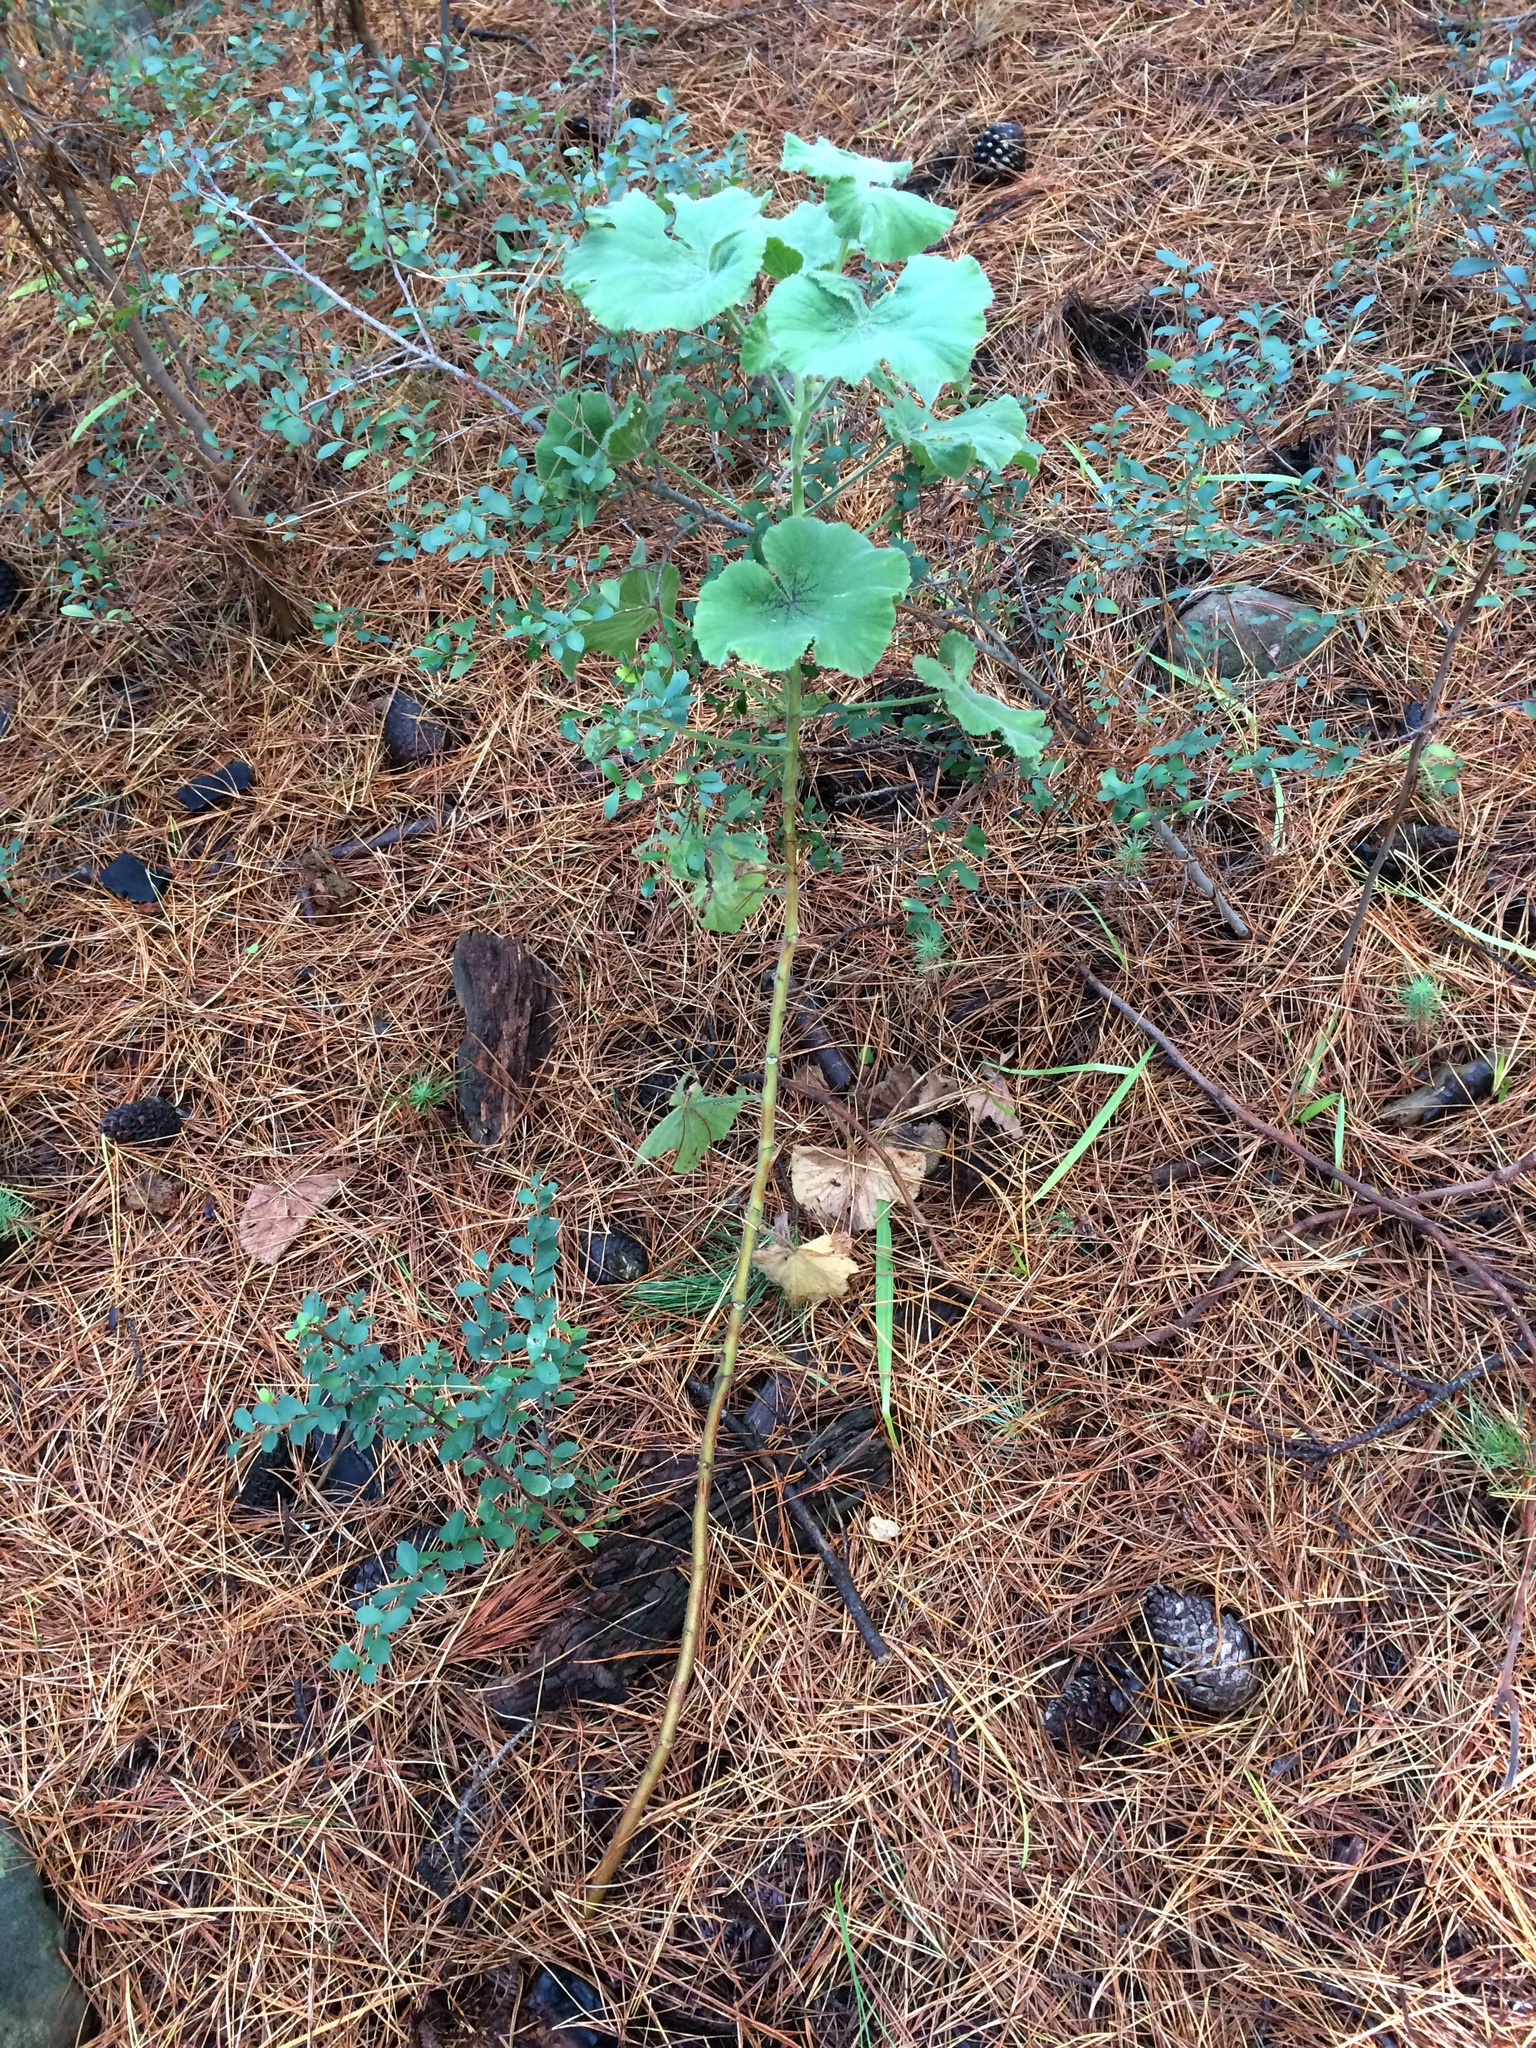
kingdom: Plantae
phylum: Tracheophyta
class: Magnoliopsida
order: Geraniales
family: Geraniaceae
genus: Pelargonium
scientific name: Pelargonium cucullatum
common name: Tree pelargonium
